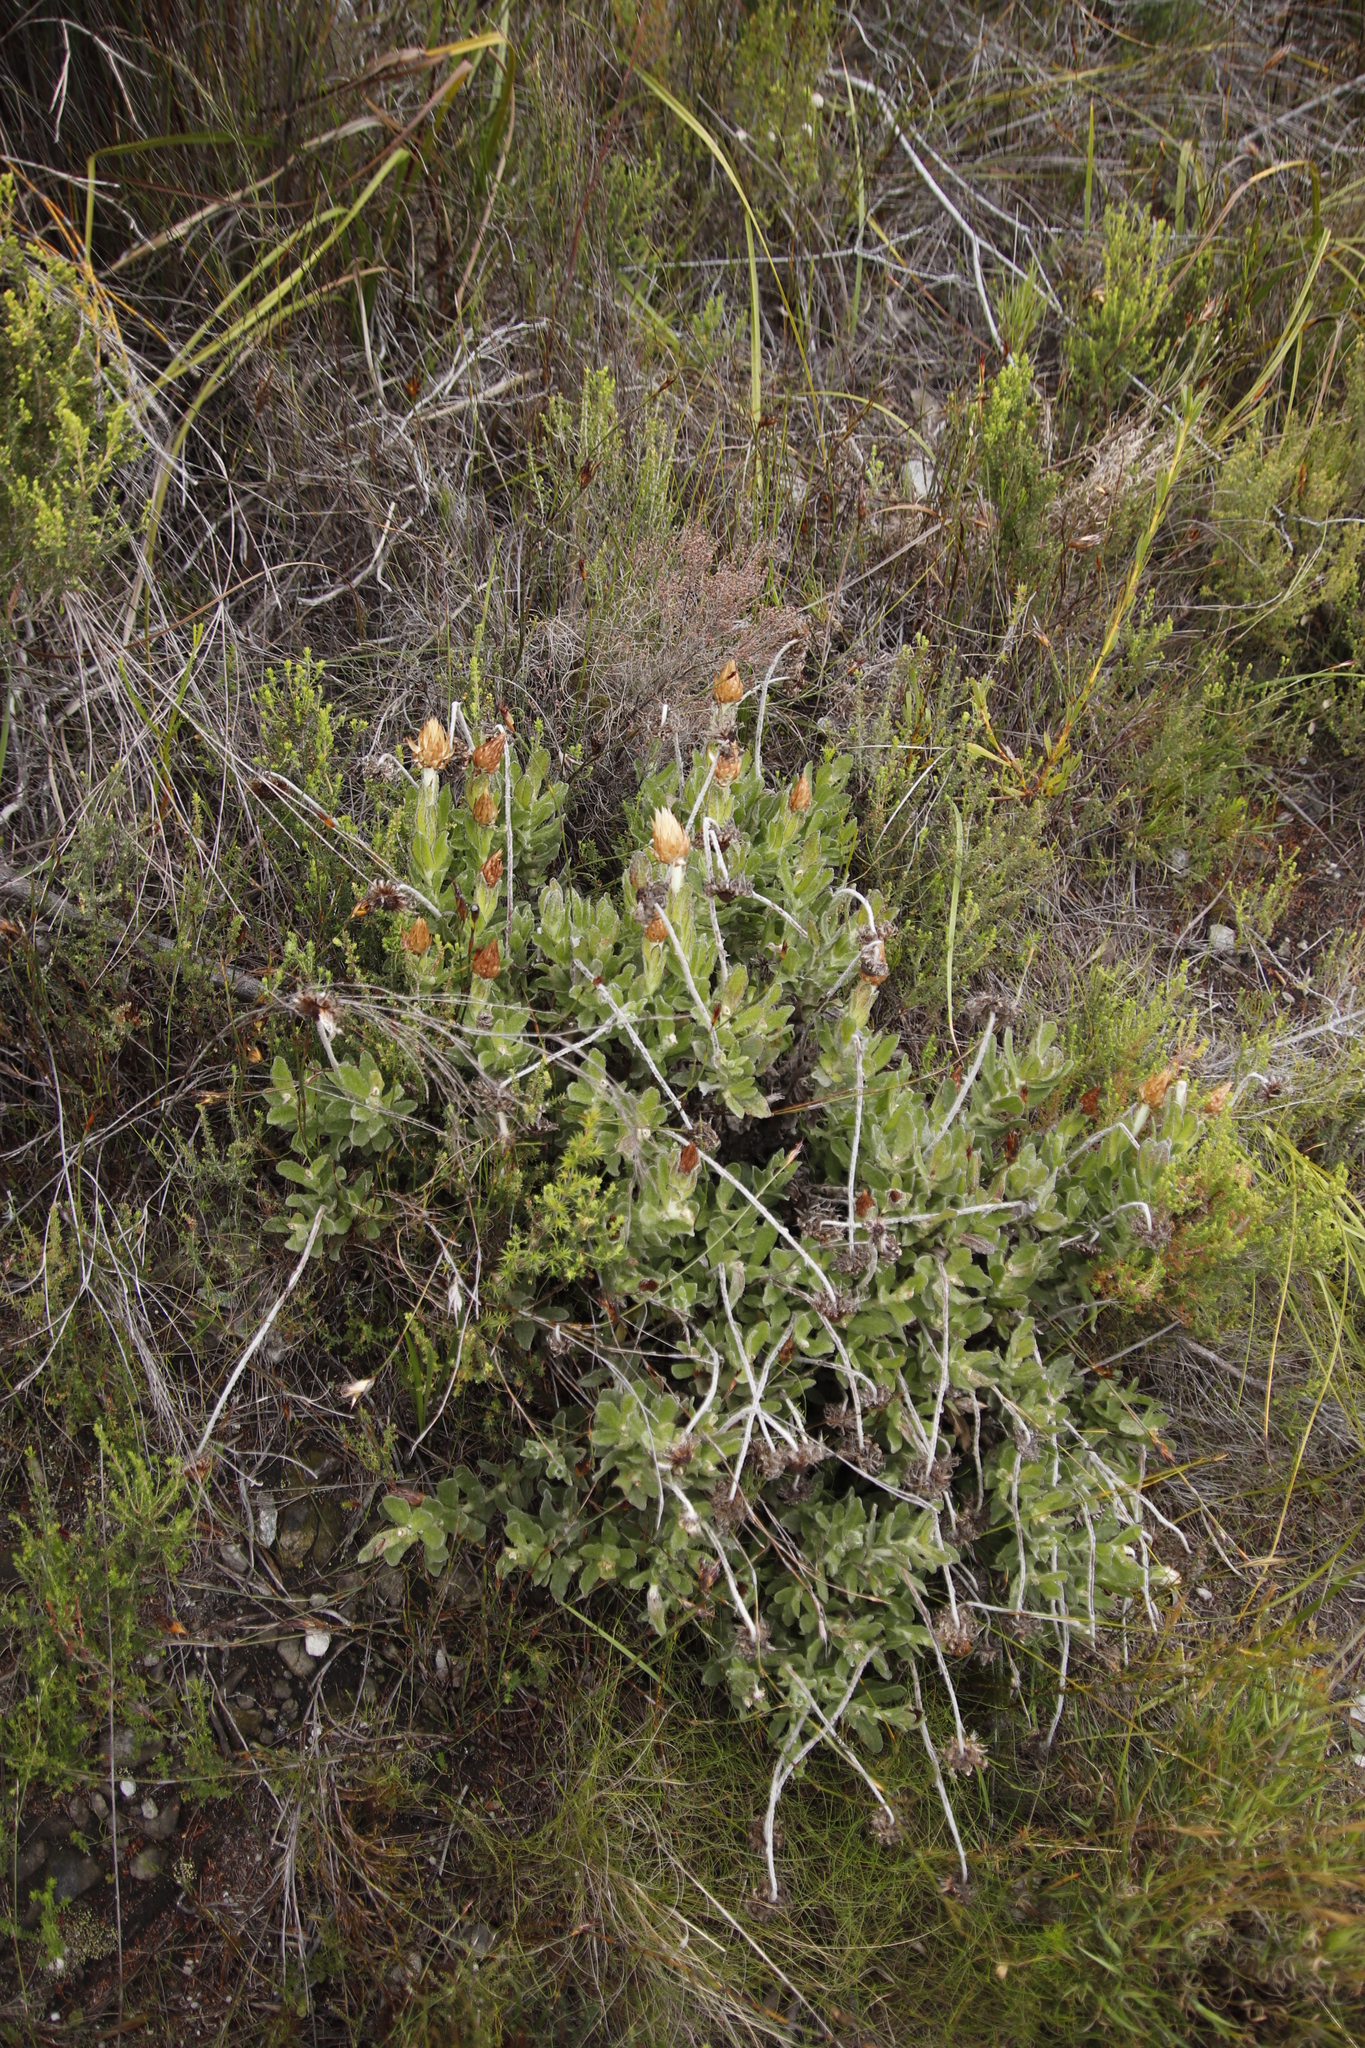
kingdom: Plantae
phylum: Tracheophyta
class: Magnoliopsida
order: Asterales
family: Asteraceae
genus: Syncarpha
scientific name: Syncarpha speciosissima
